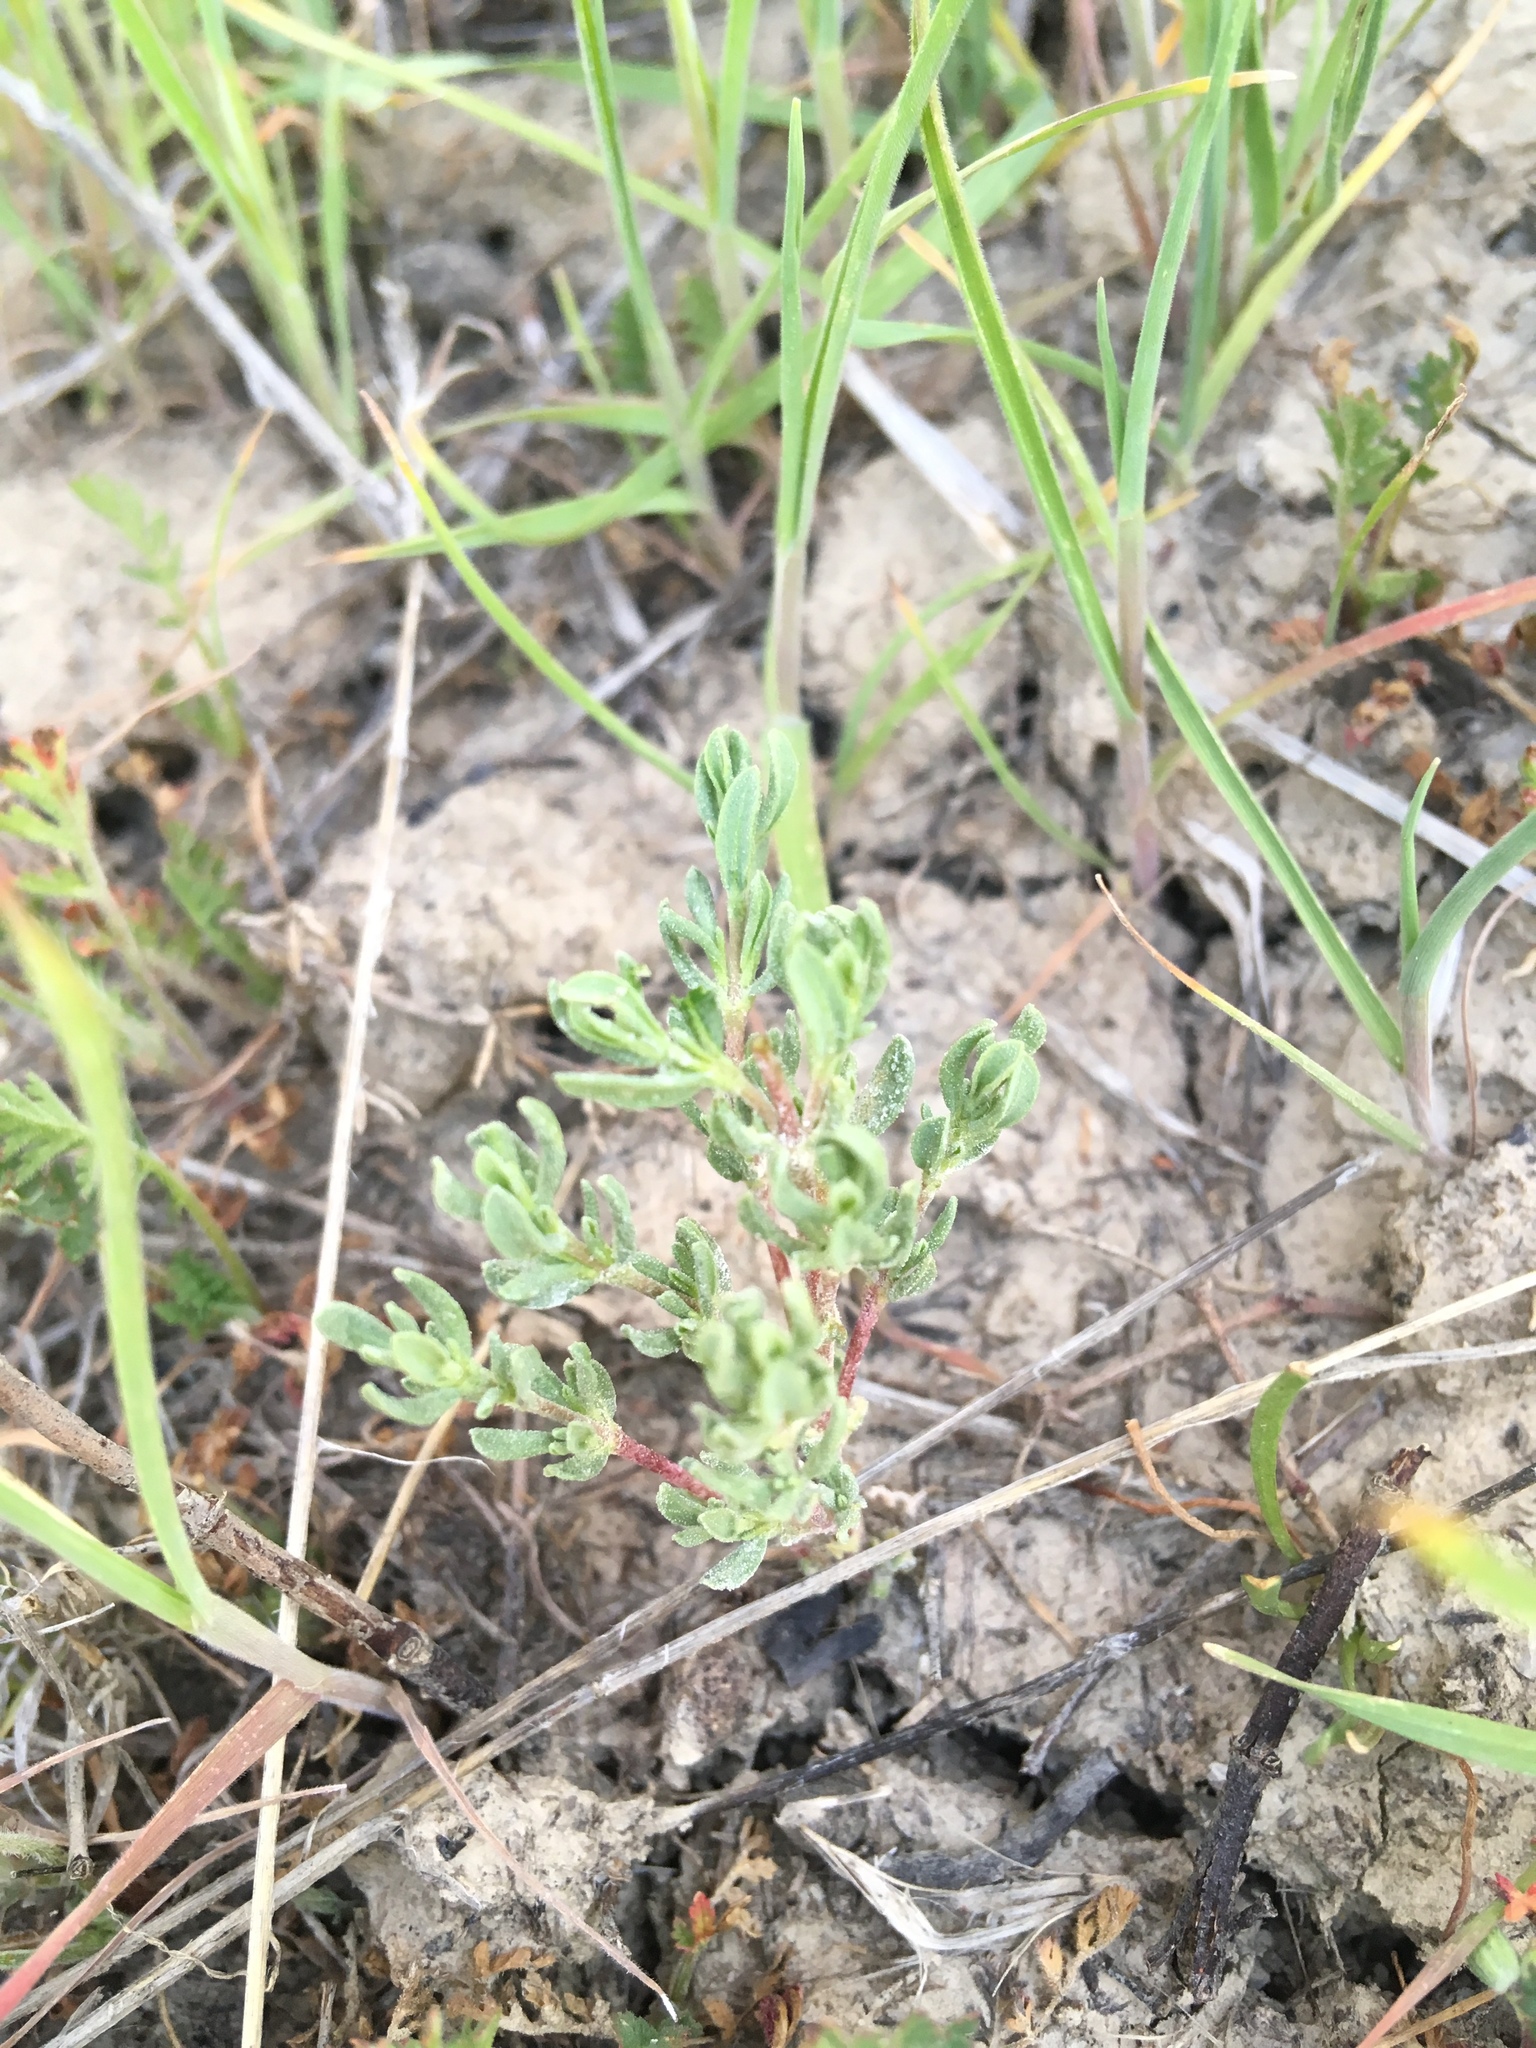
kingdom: Plantae
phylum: Tracheophyta
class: Magnoliopsida
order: Caryophyllales
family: Frankeniaceae
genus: Frankenia
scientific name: Frankenia salina
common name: Alkali seaheath
